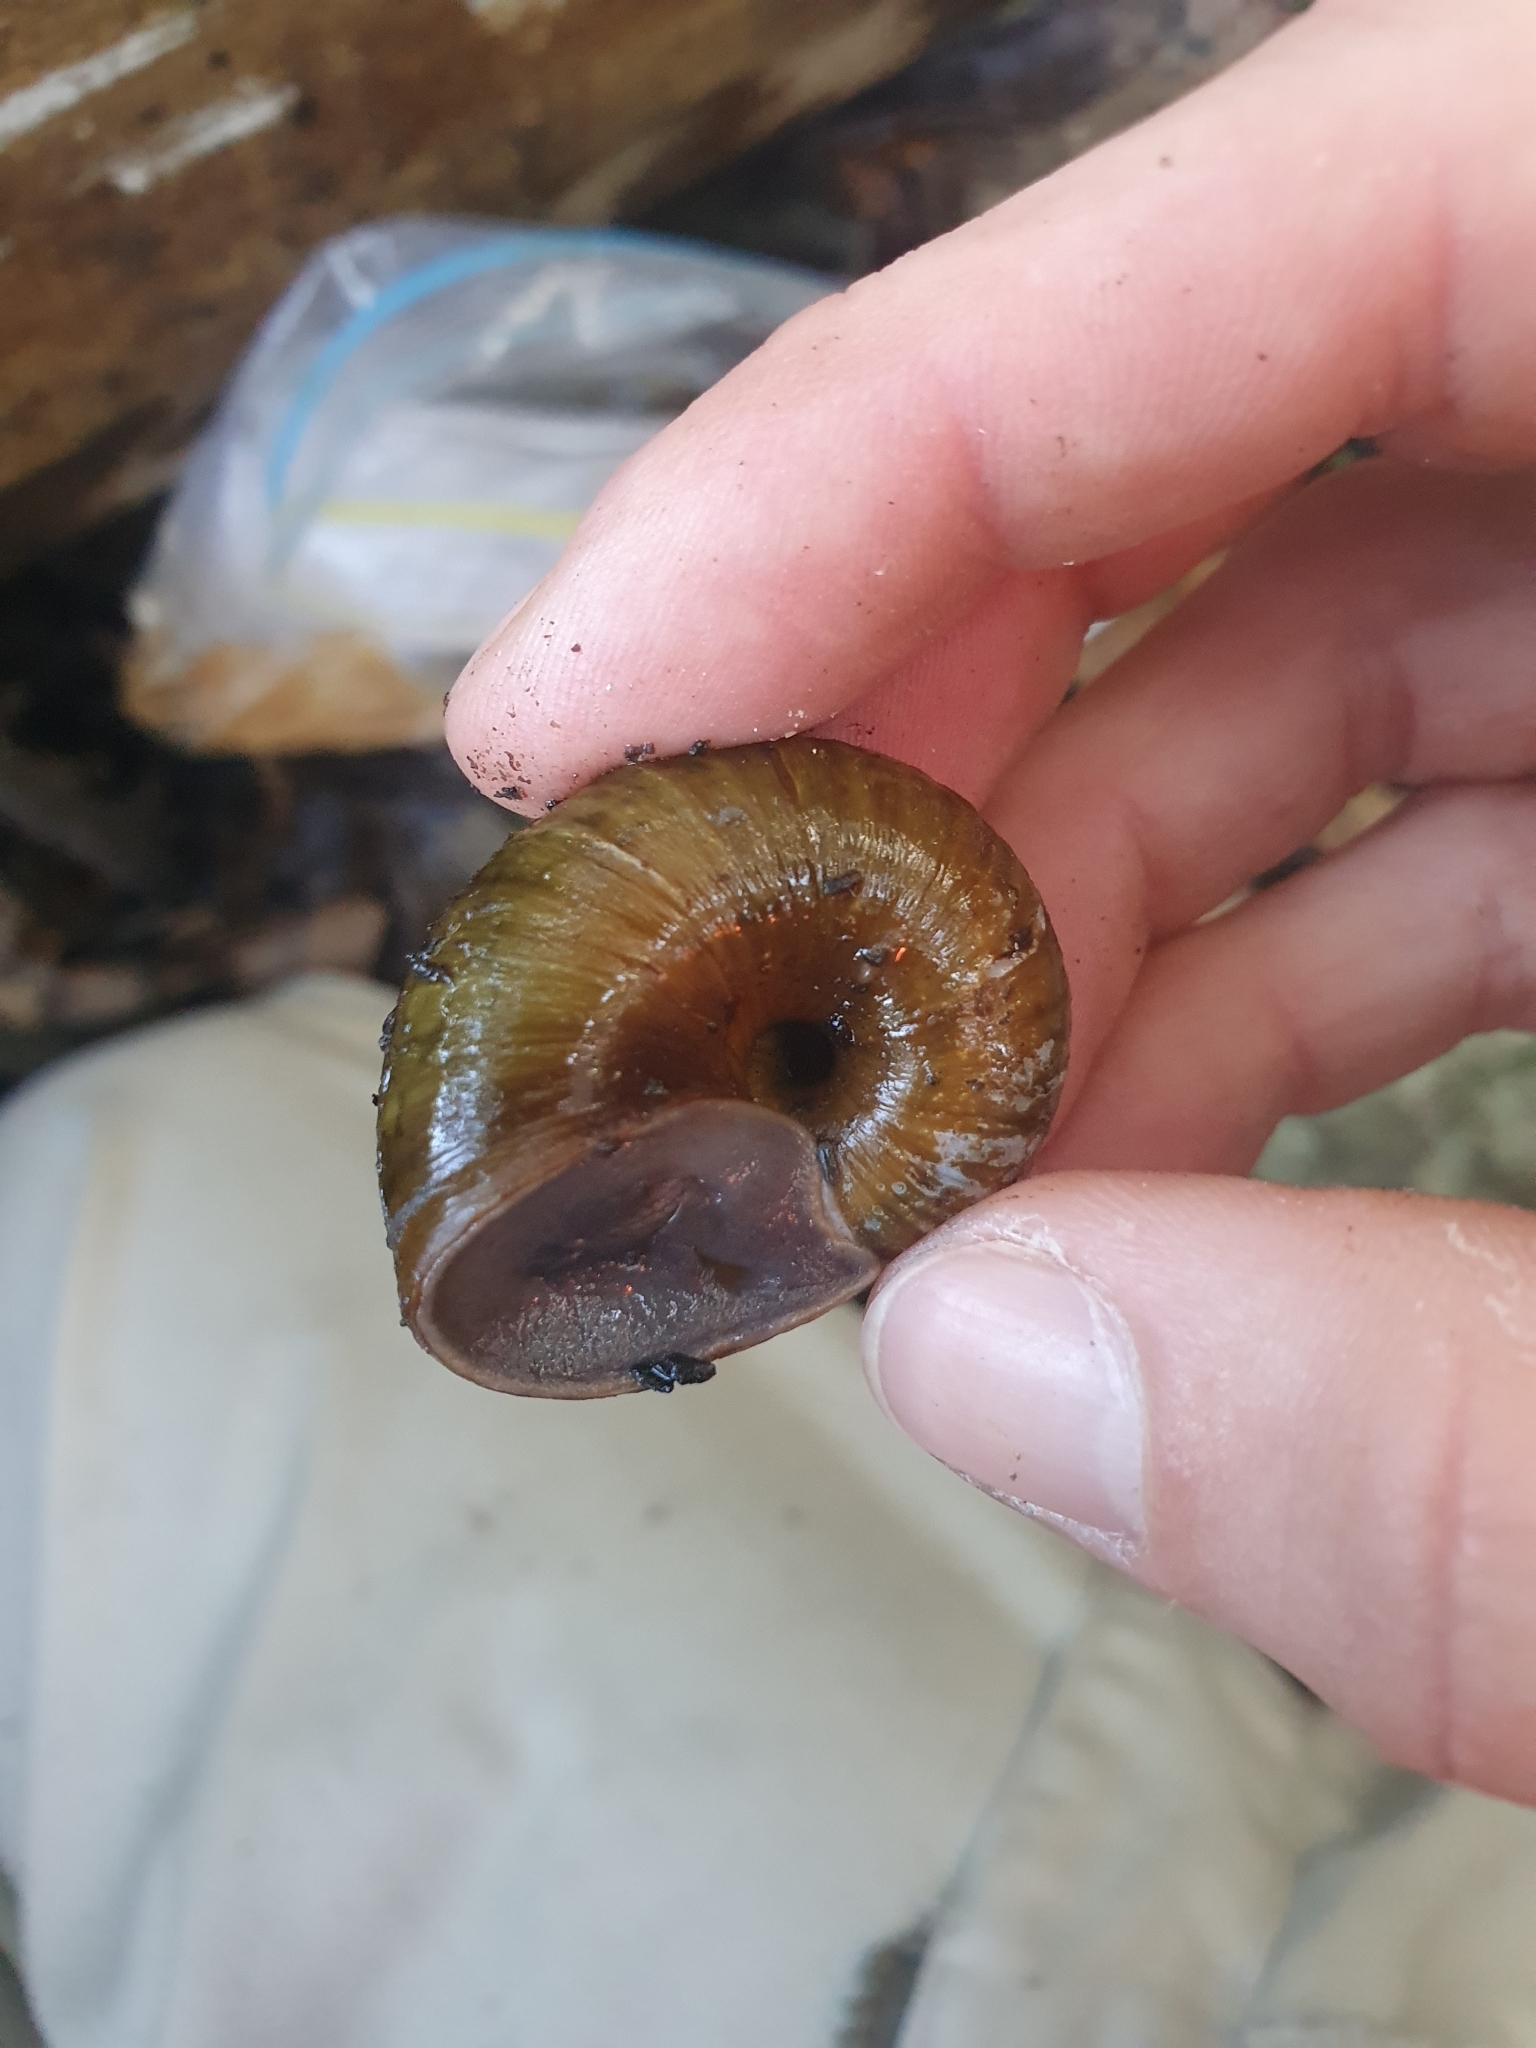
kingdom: Animalia
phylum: Mollusca
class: Gastropoda
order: Stylommatophora
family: Rhytididae
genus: Rhytida
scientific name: Rhytida stephenensis
